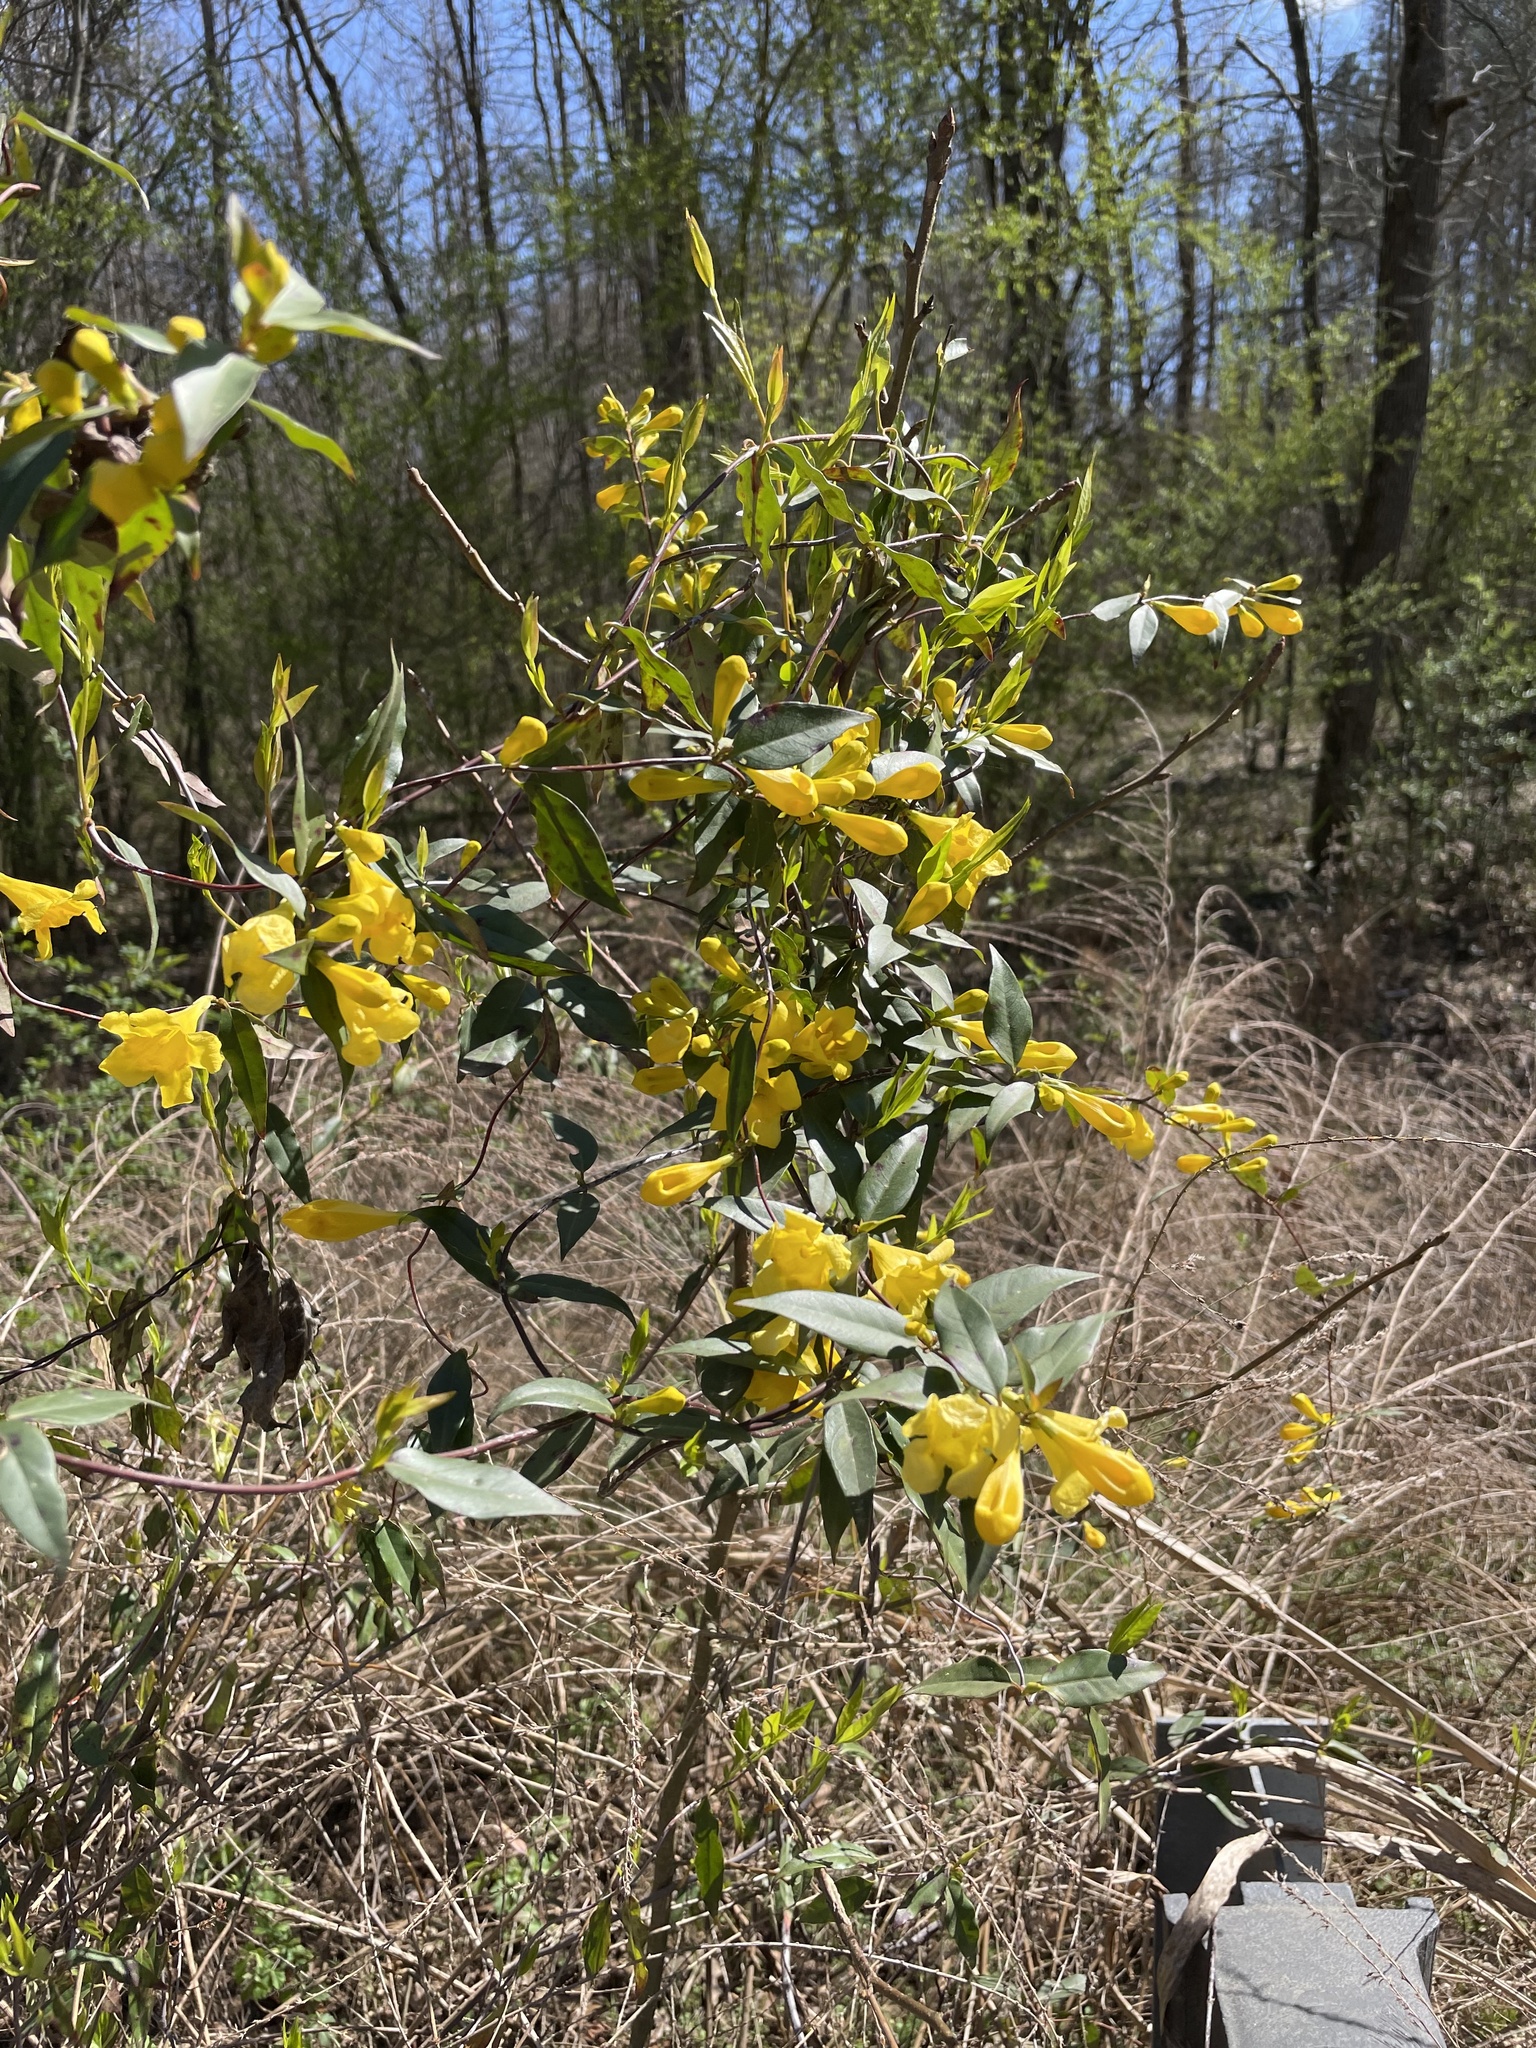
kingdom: Plantae
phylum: Tracheophyta
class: Magnoliopsida
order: Gentianales
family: Gelsemiaceae
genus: Gelsemium
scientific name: Gelsemium sempervirens
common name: Carolina-jasmine
